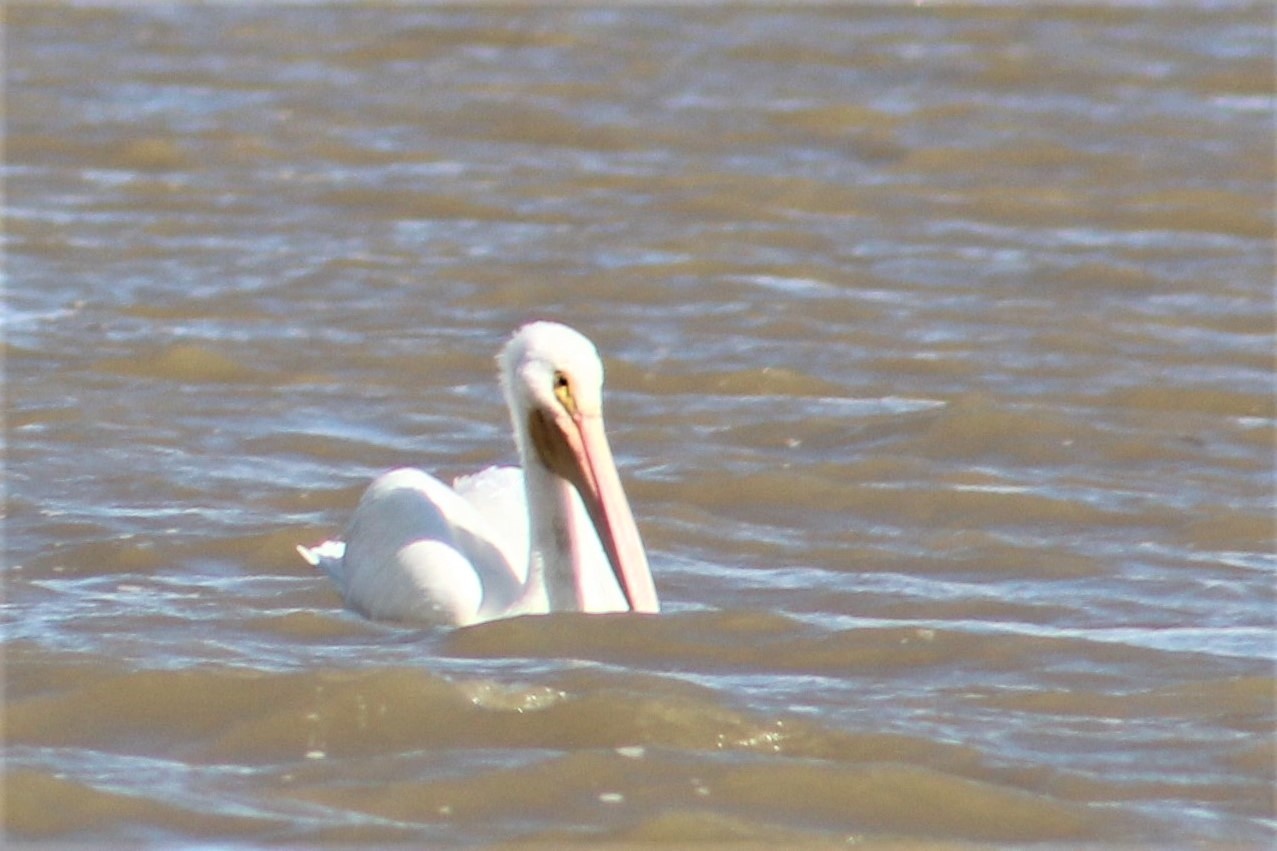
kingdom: Animalia
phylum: Chordata
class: Aves
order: Pelecaniformes
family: Pelecanidae
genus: Pelecanus
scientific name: Pelecanus erythrorhynchos
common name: American white pelican
